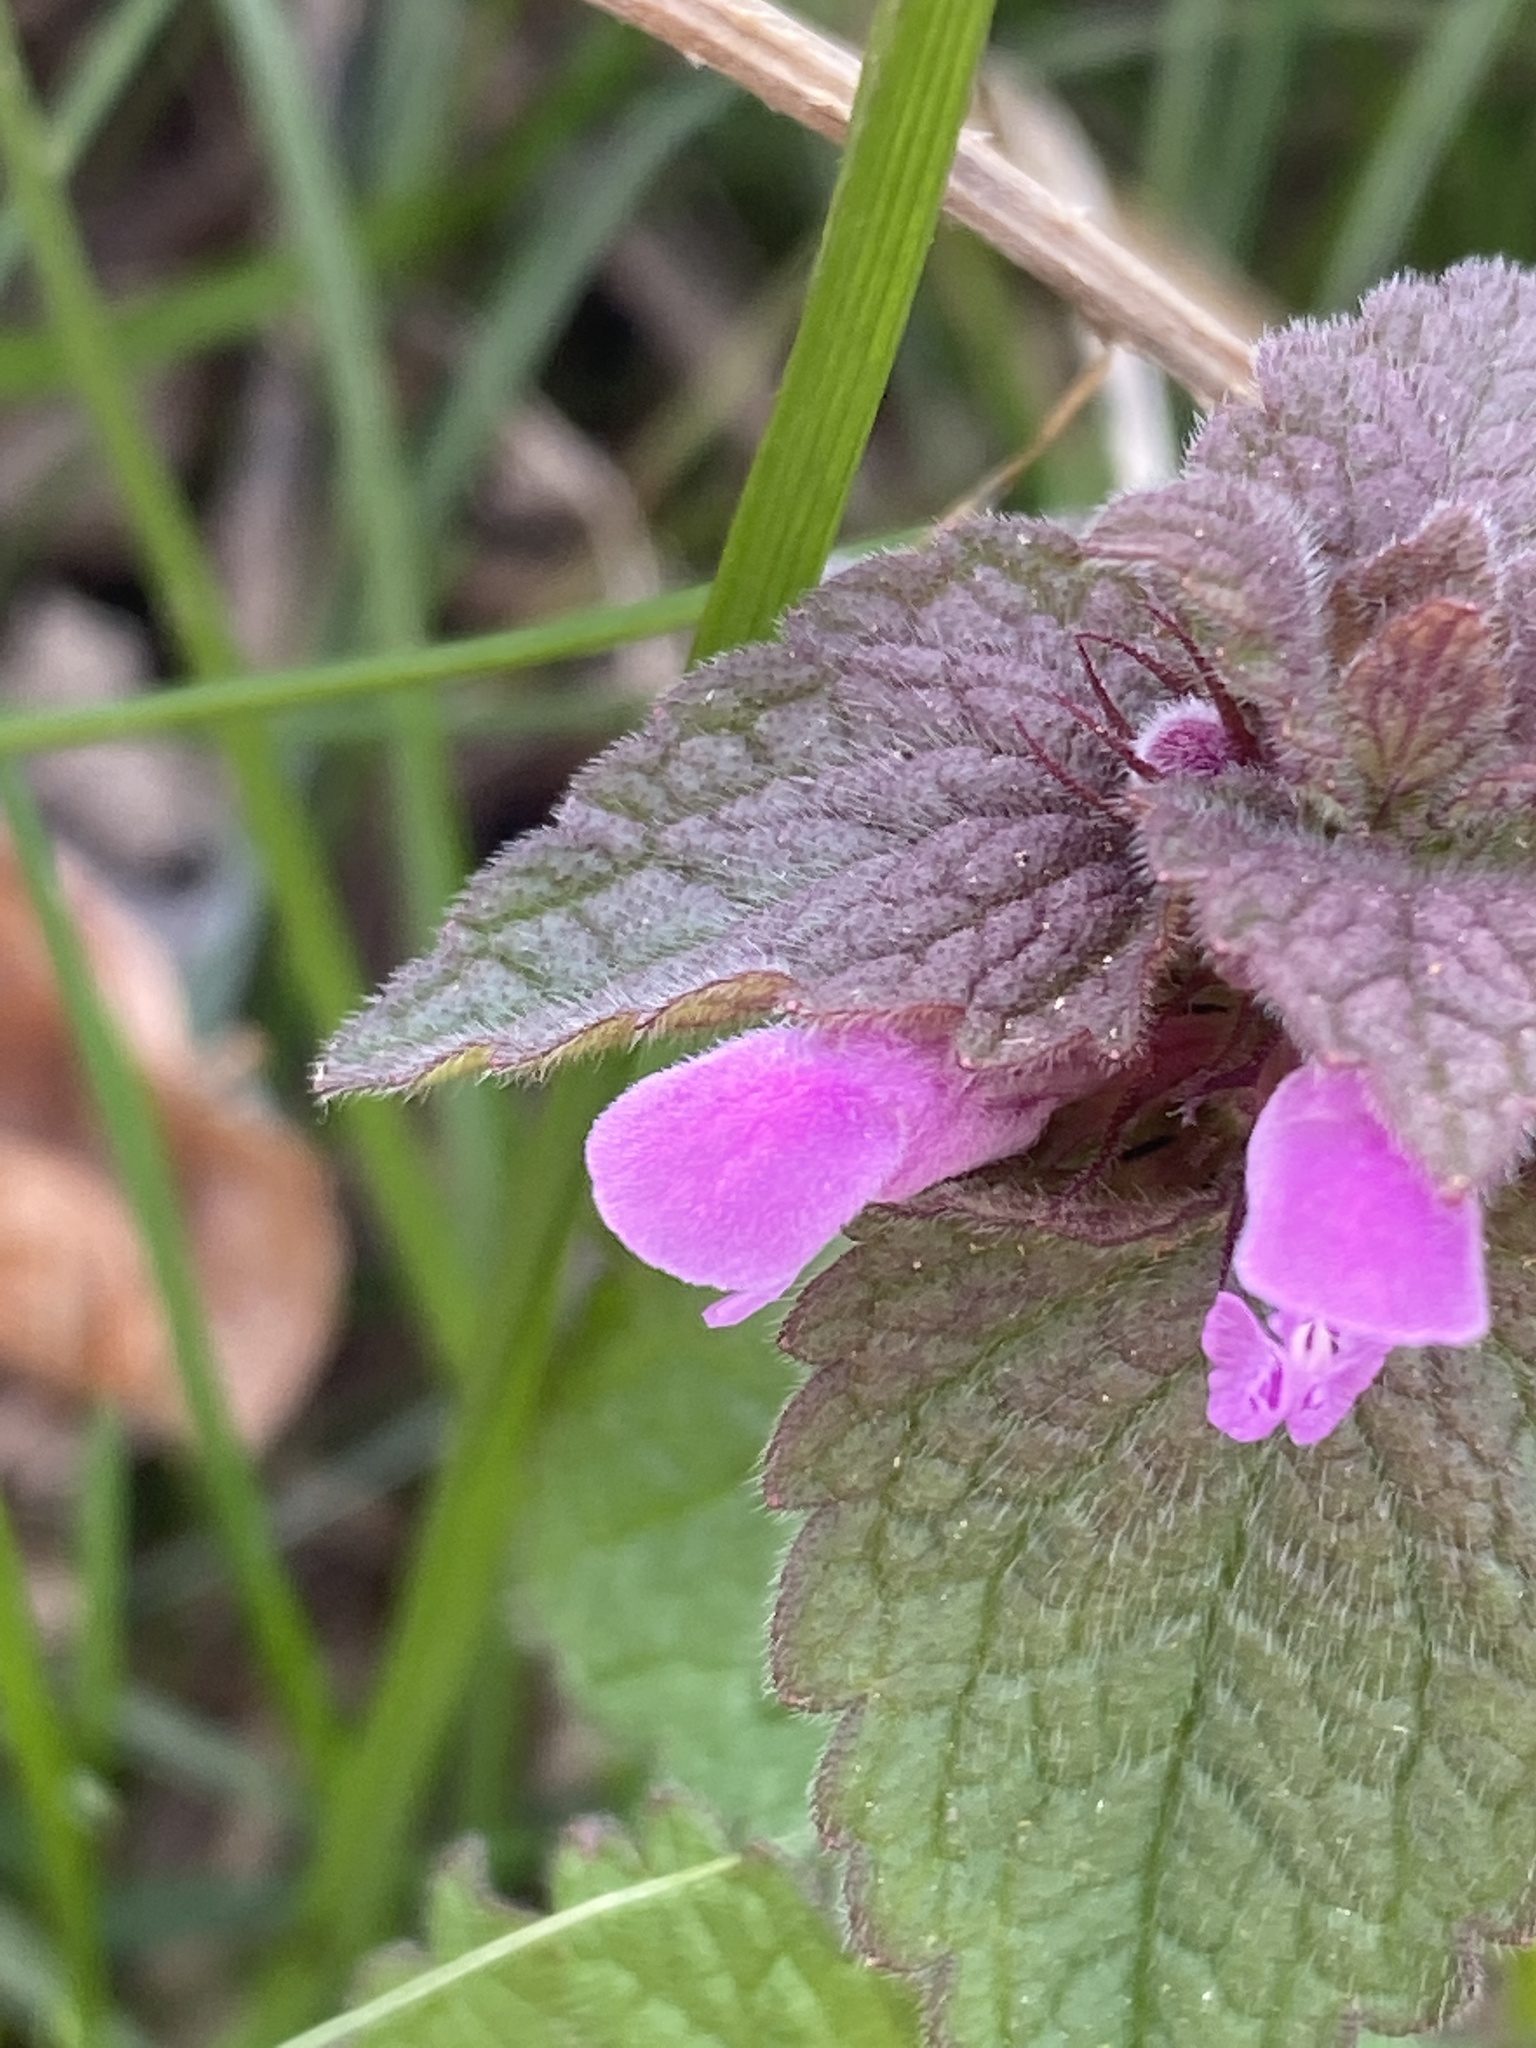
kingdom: Plantae
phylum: Tracheophyta
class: Magnoliopsida
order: Lamiales
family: Lamiaceae
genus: Lamium
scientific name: Lamium purpureum
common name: Red dead-nettle
